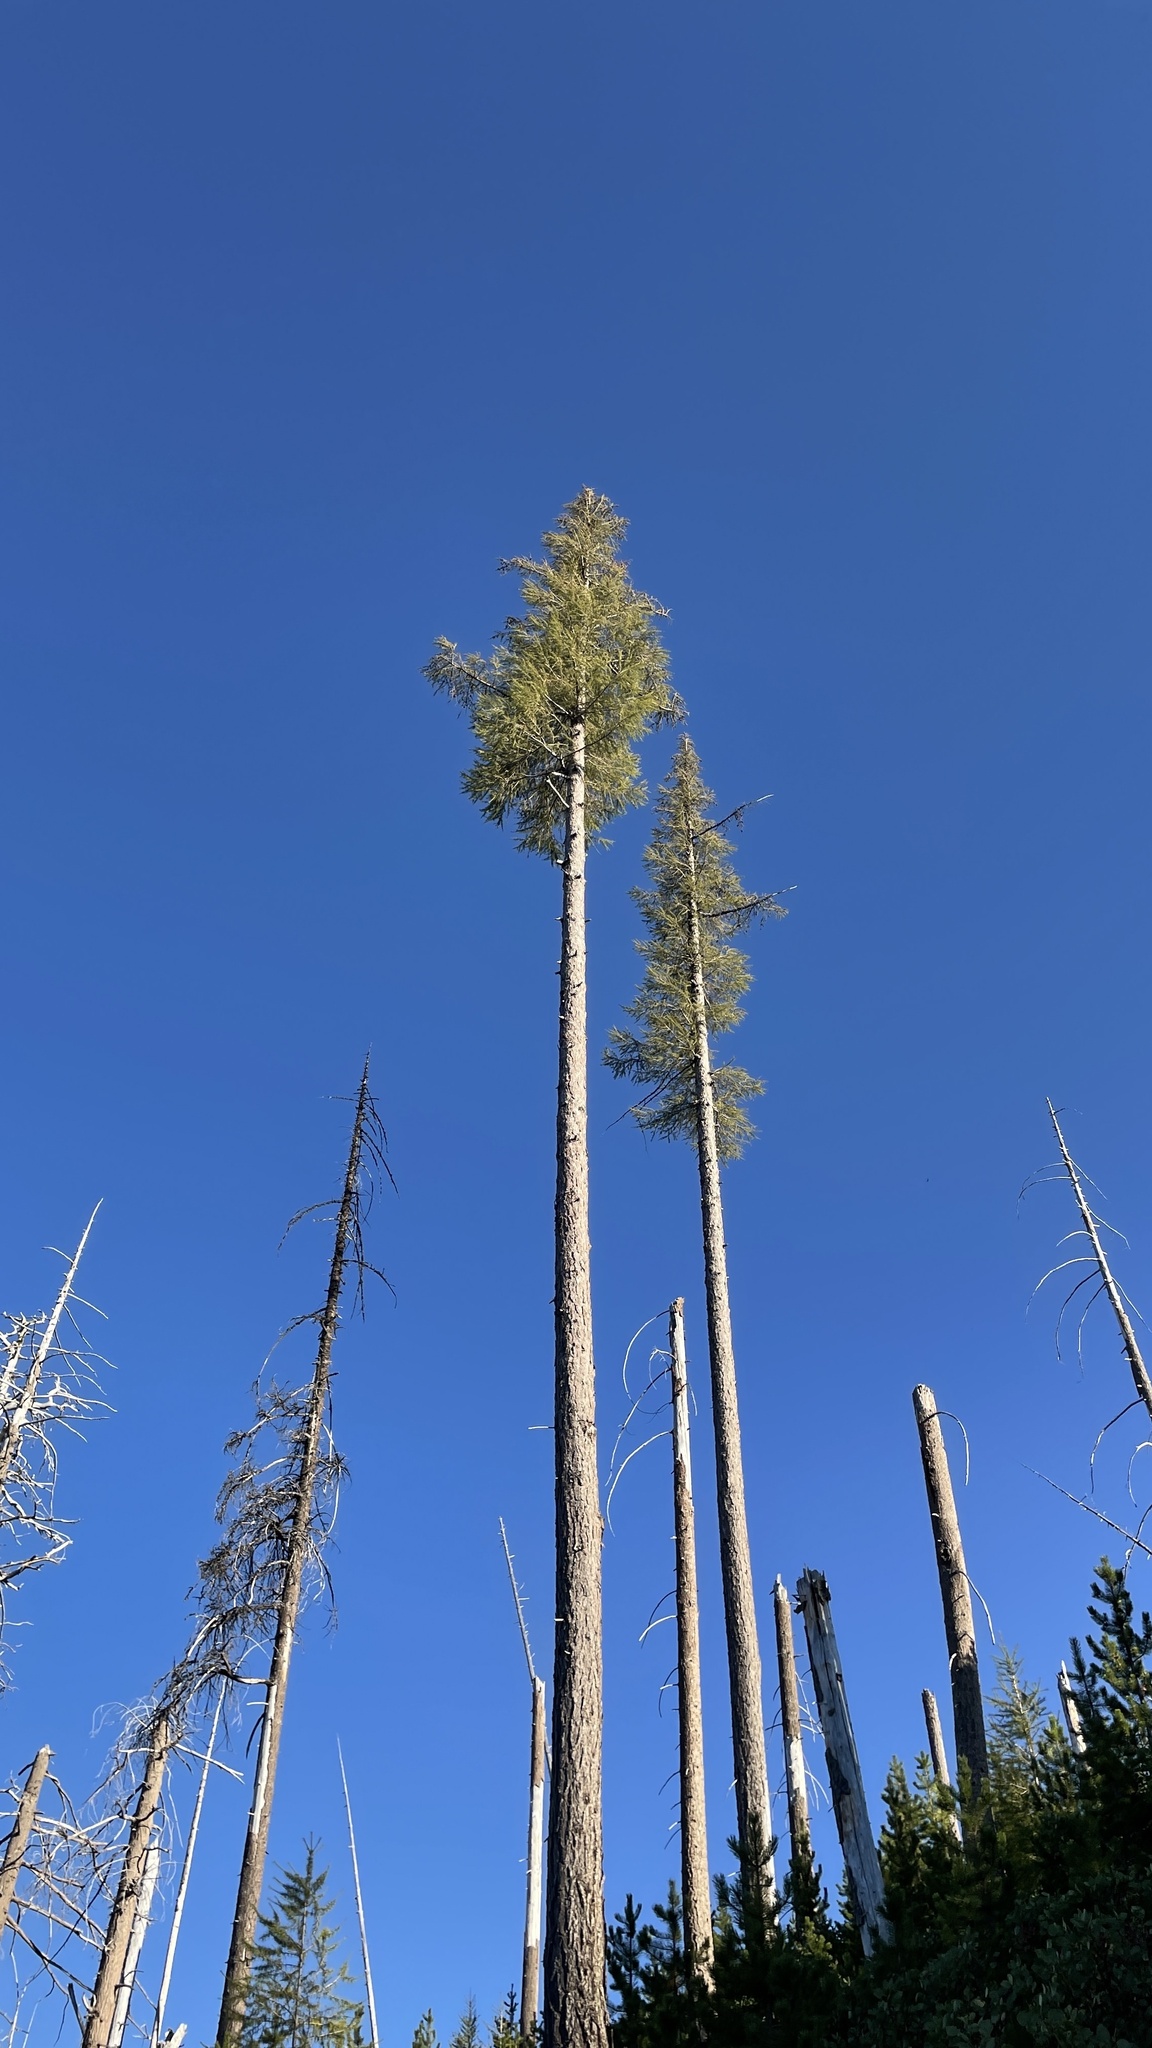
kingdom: Plantae
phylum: Tracheophyta
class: Pinopsida
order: Pinales
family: Pinaceae
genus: Larix
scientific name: Larix occidentalis
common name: Western larch
